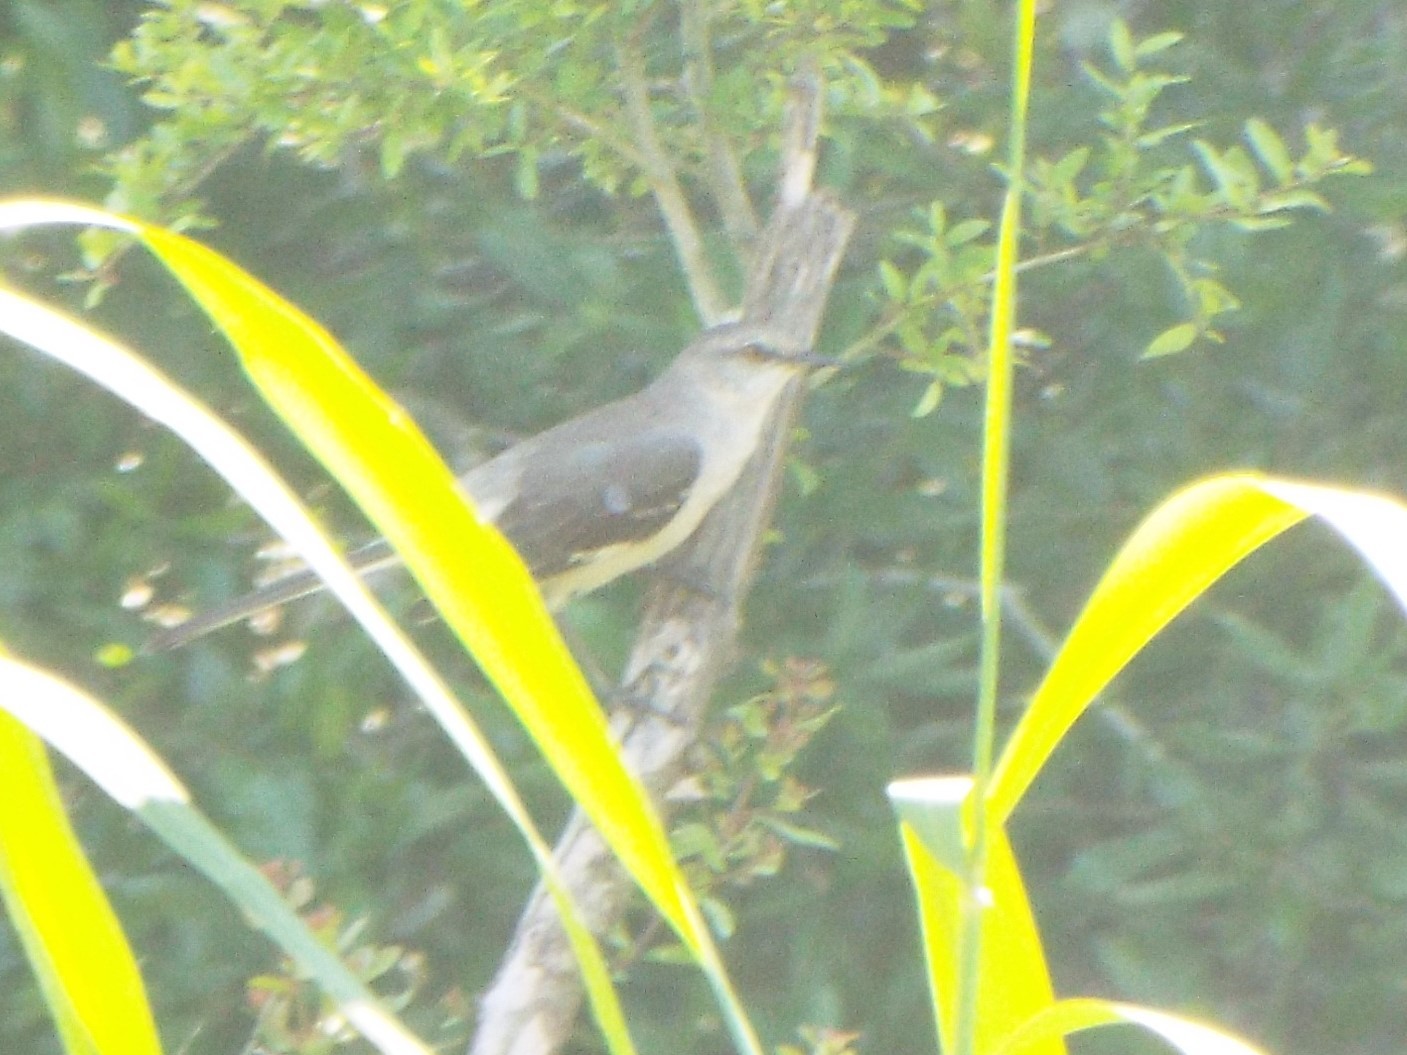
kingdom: Animalia
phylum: Chordata
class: Aves
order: Passeriformes
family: Mimidae
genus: Mimus
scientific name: Mimus polyglottos
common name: Northern mockingbird
